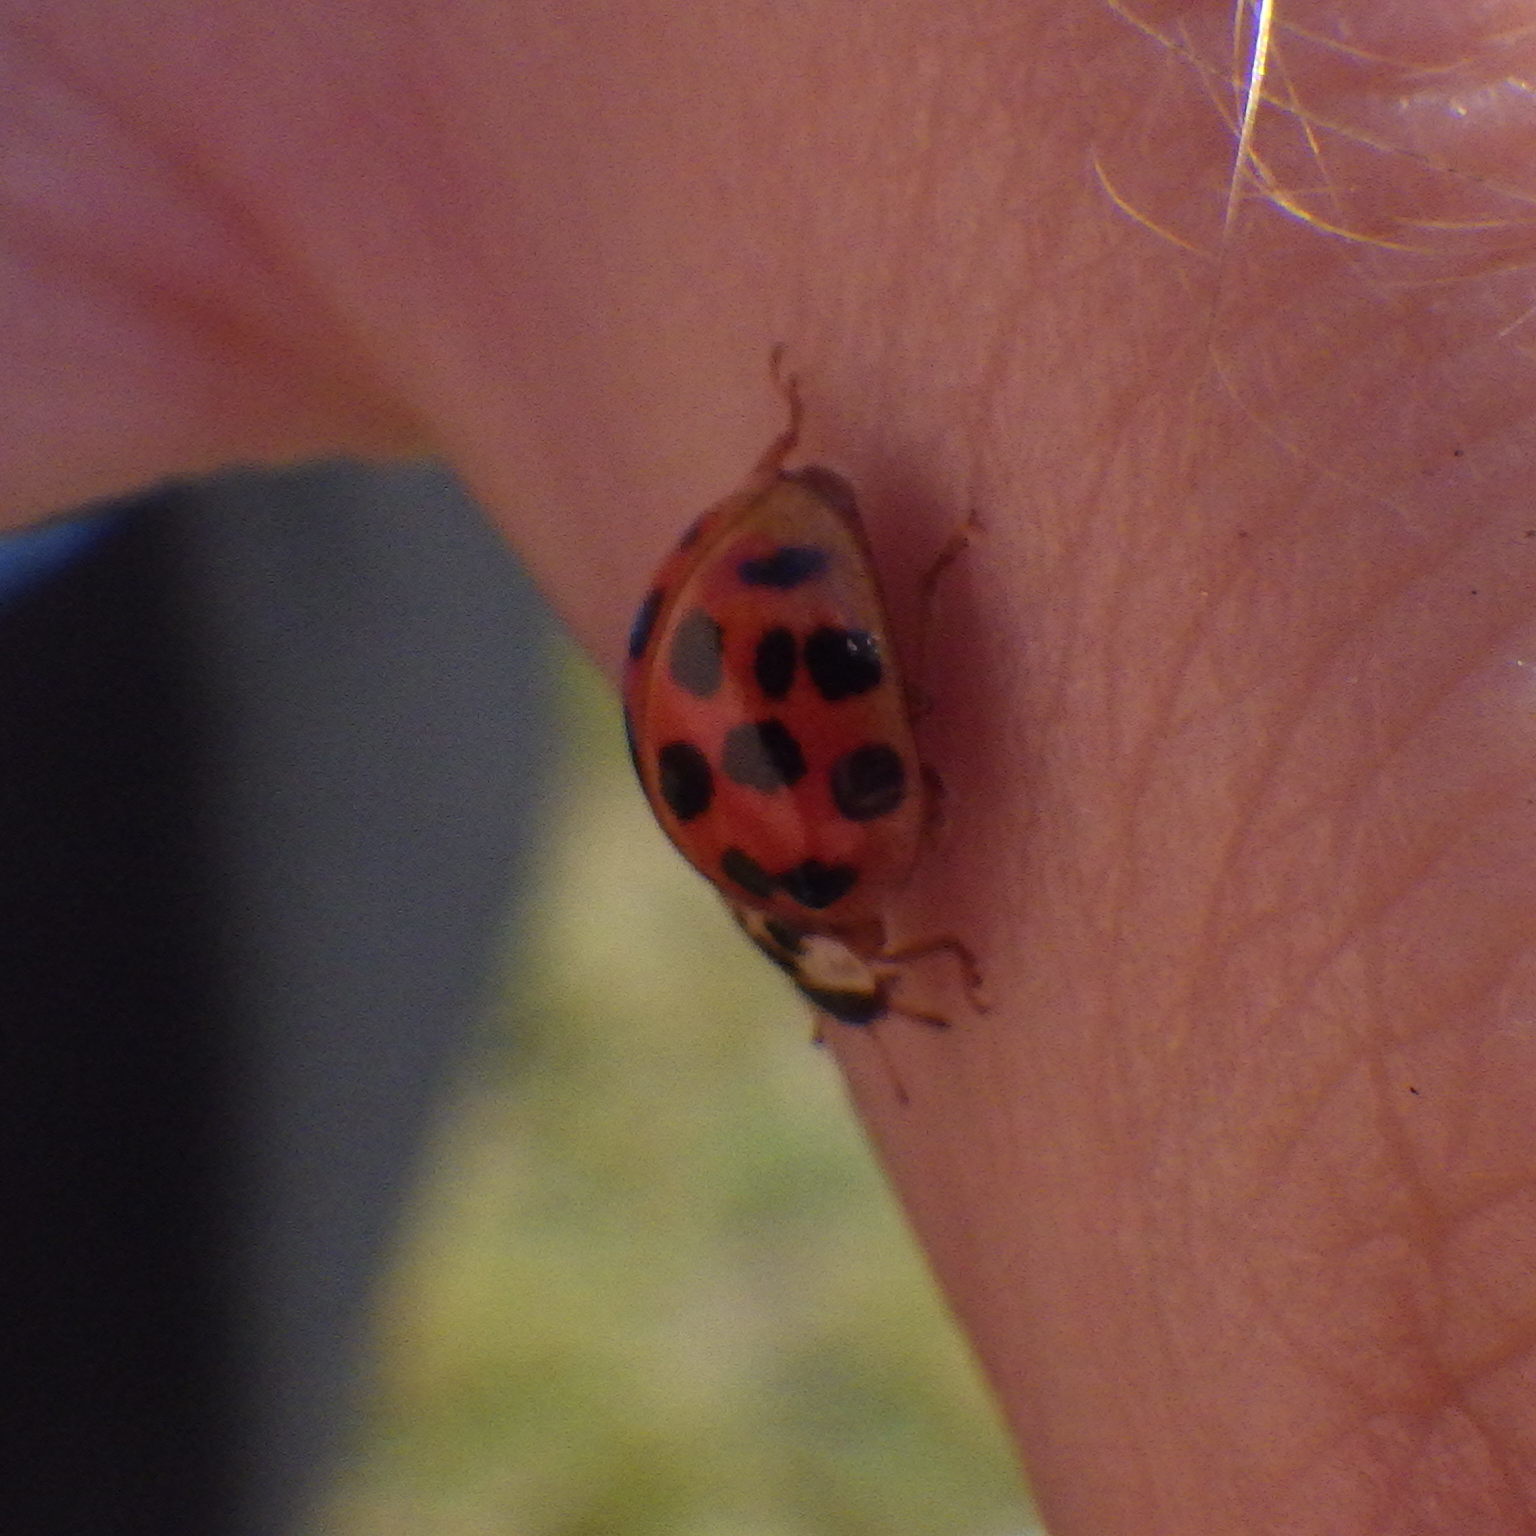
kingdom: Animalia
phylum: Arthropoda
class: Insecta
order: Coleoptera
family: Coccinellidae
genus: Harmonia
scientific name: Harmonia axyridis
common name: Harlequin ladybird
